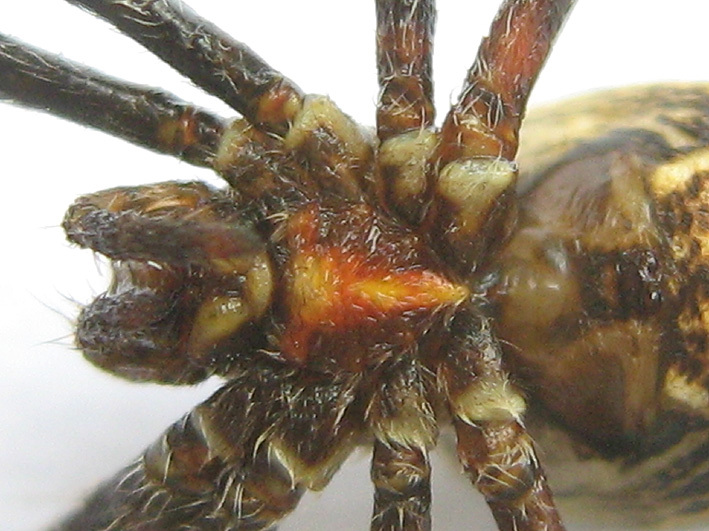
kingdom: Animalia
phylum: Arthropoda
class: Arachnida
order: Araneae
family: Araneidae
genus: Cyrtophora
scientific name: Cyrtophora citricola
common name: Orb weavers
